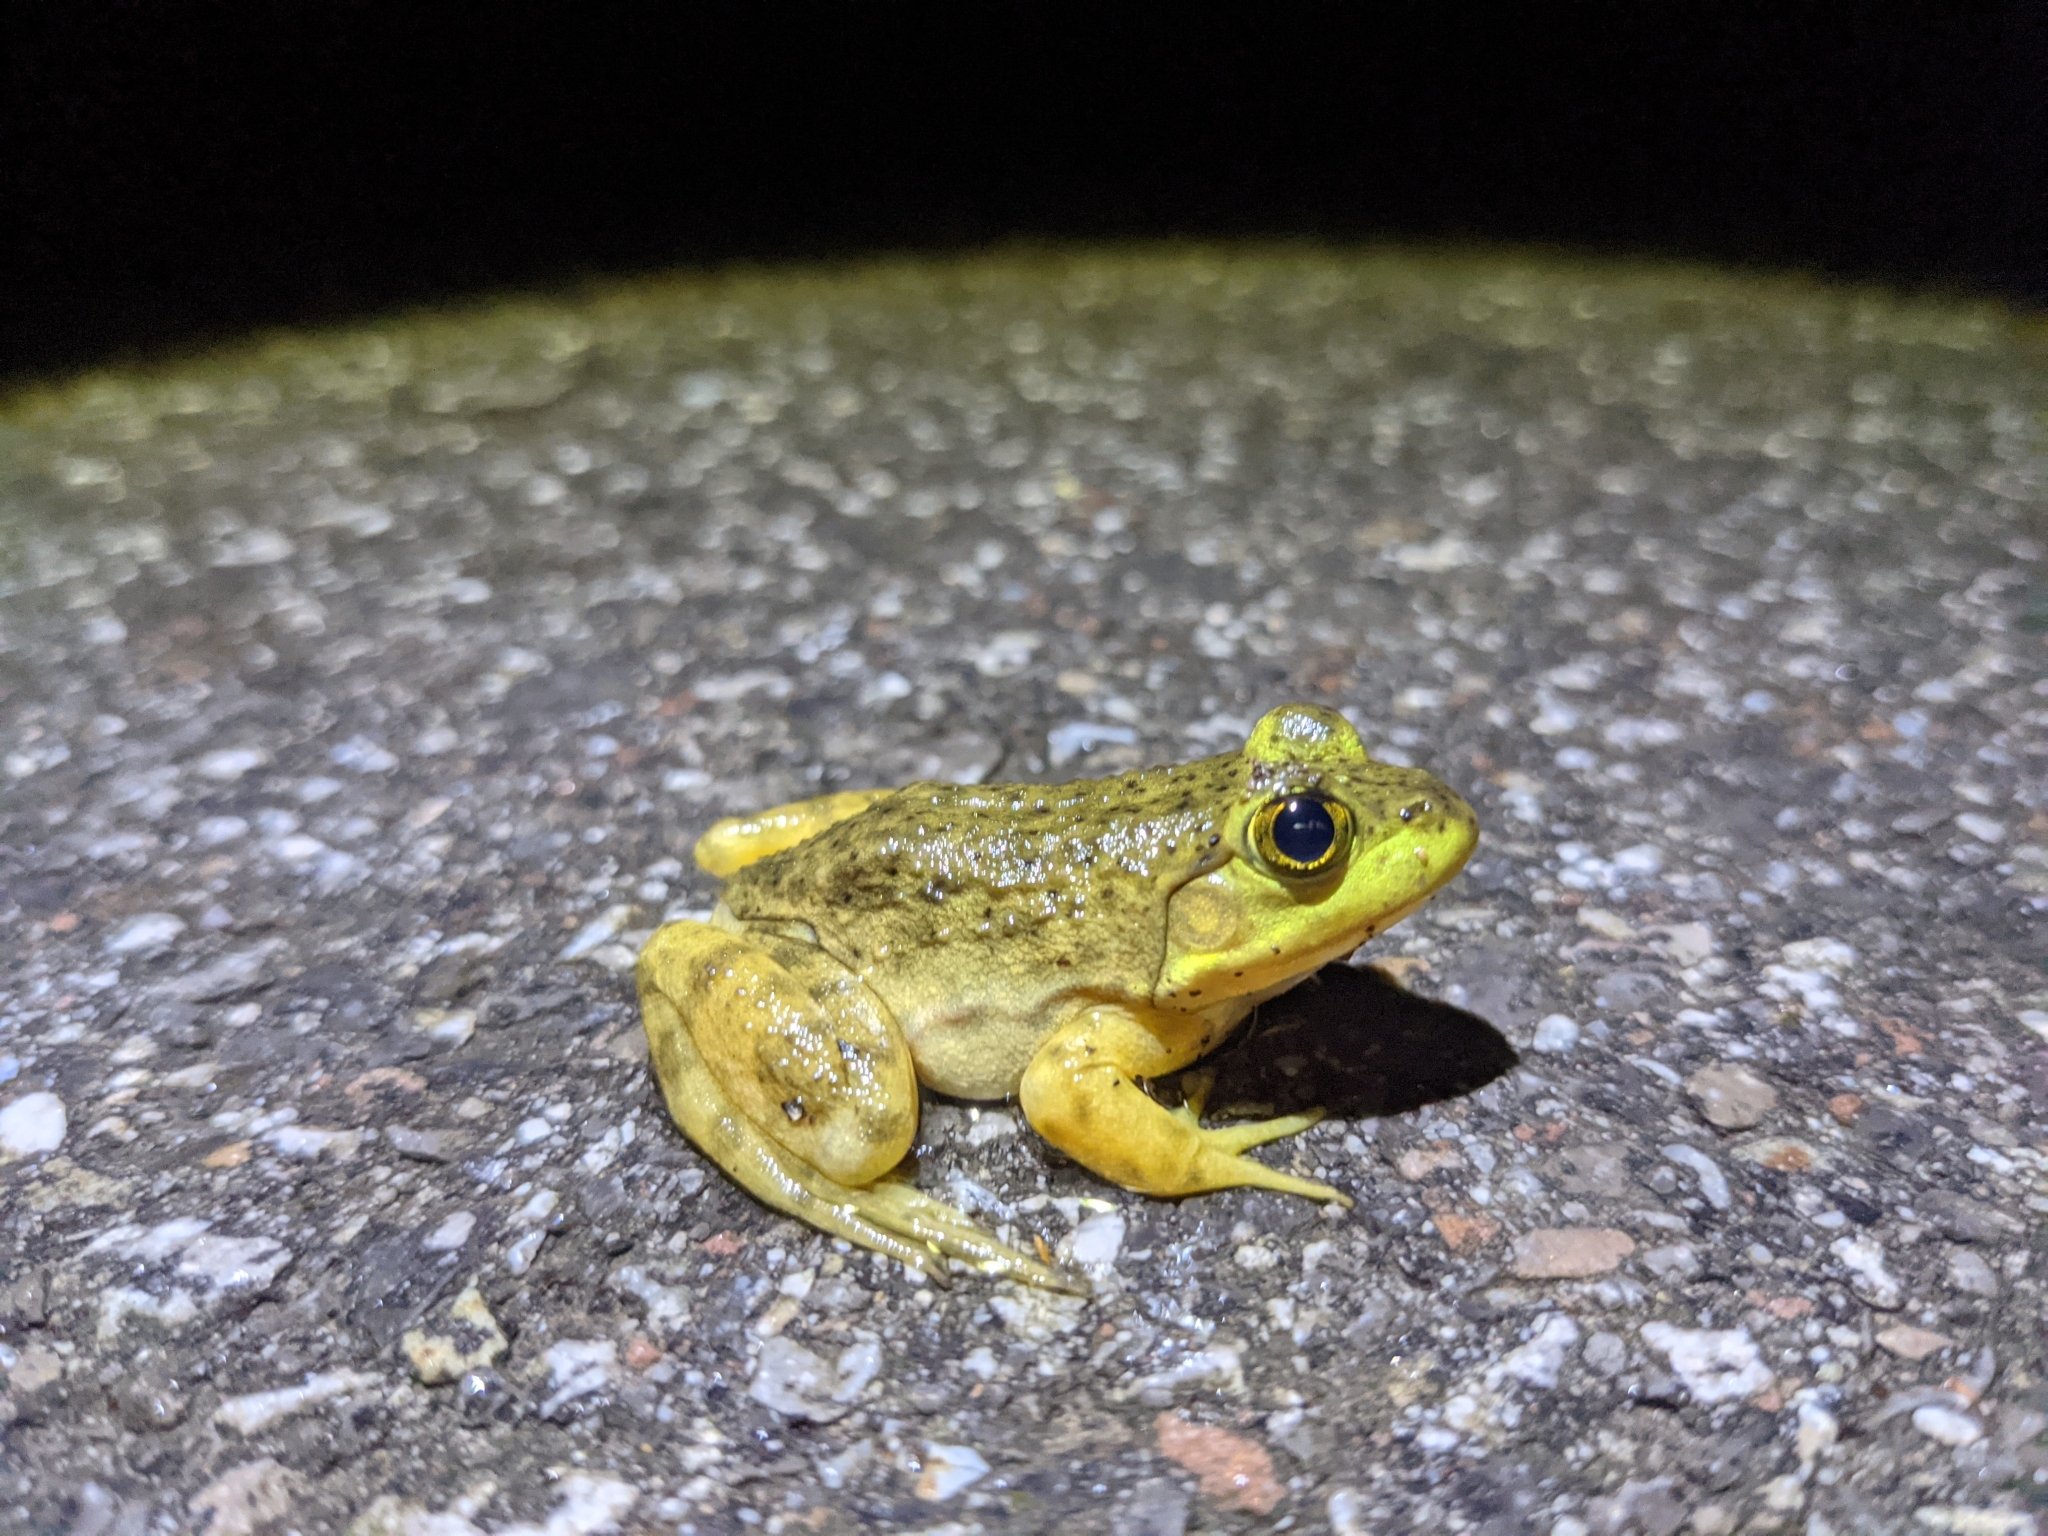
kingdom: Animalia
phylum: Chordata
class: Amphibia
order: Anura
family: Ranidae
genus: Lithobates
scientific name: Lithobates catesbeianus
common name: American bullfrog
